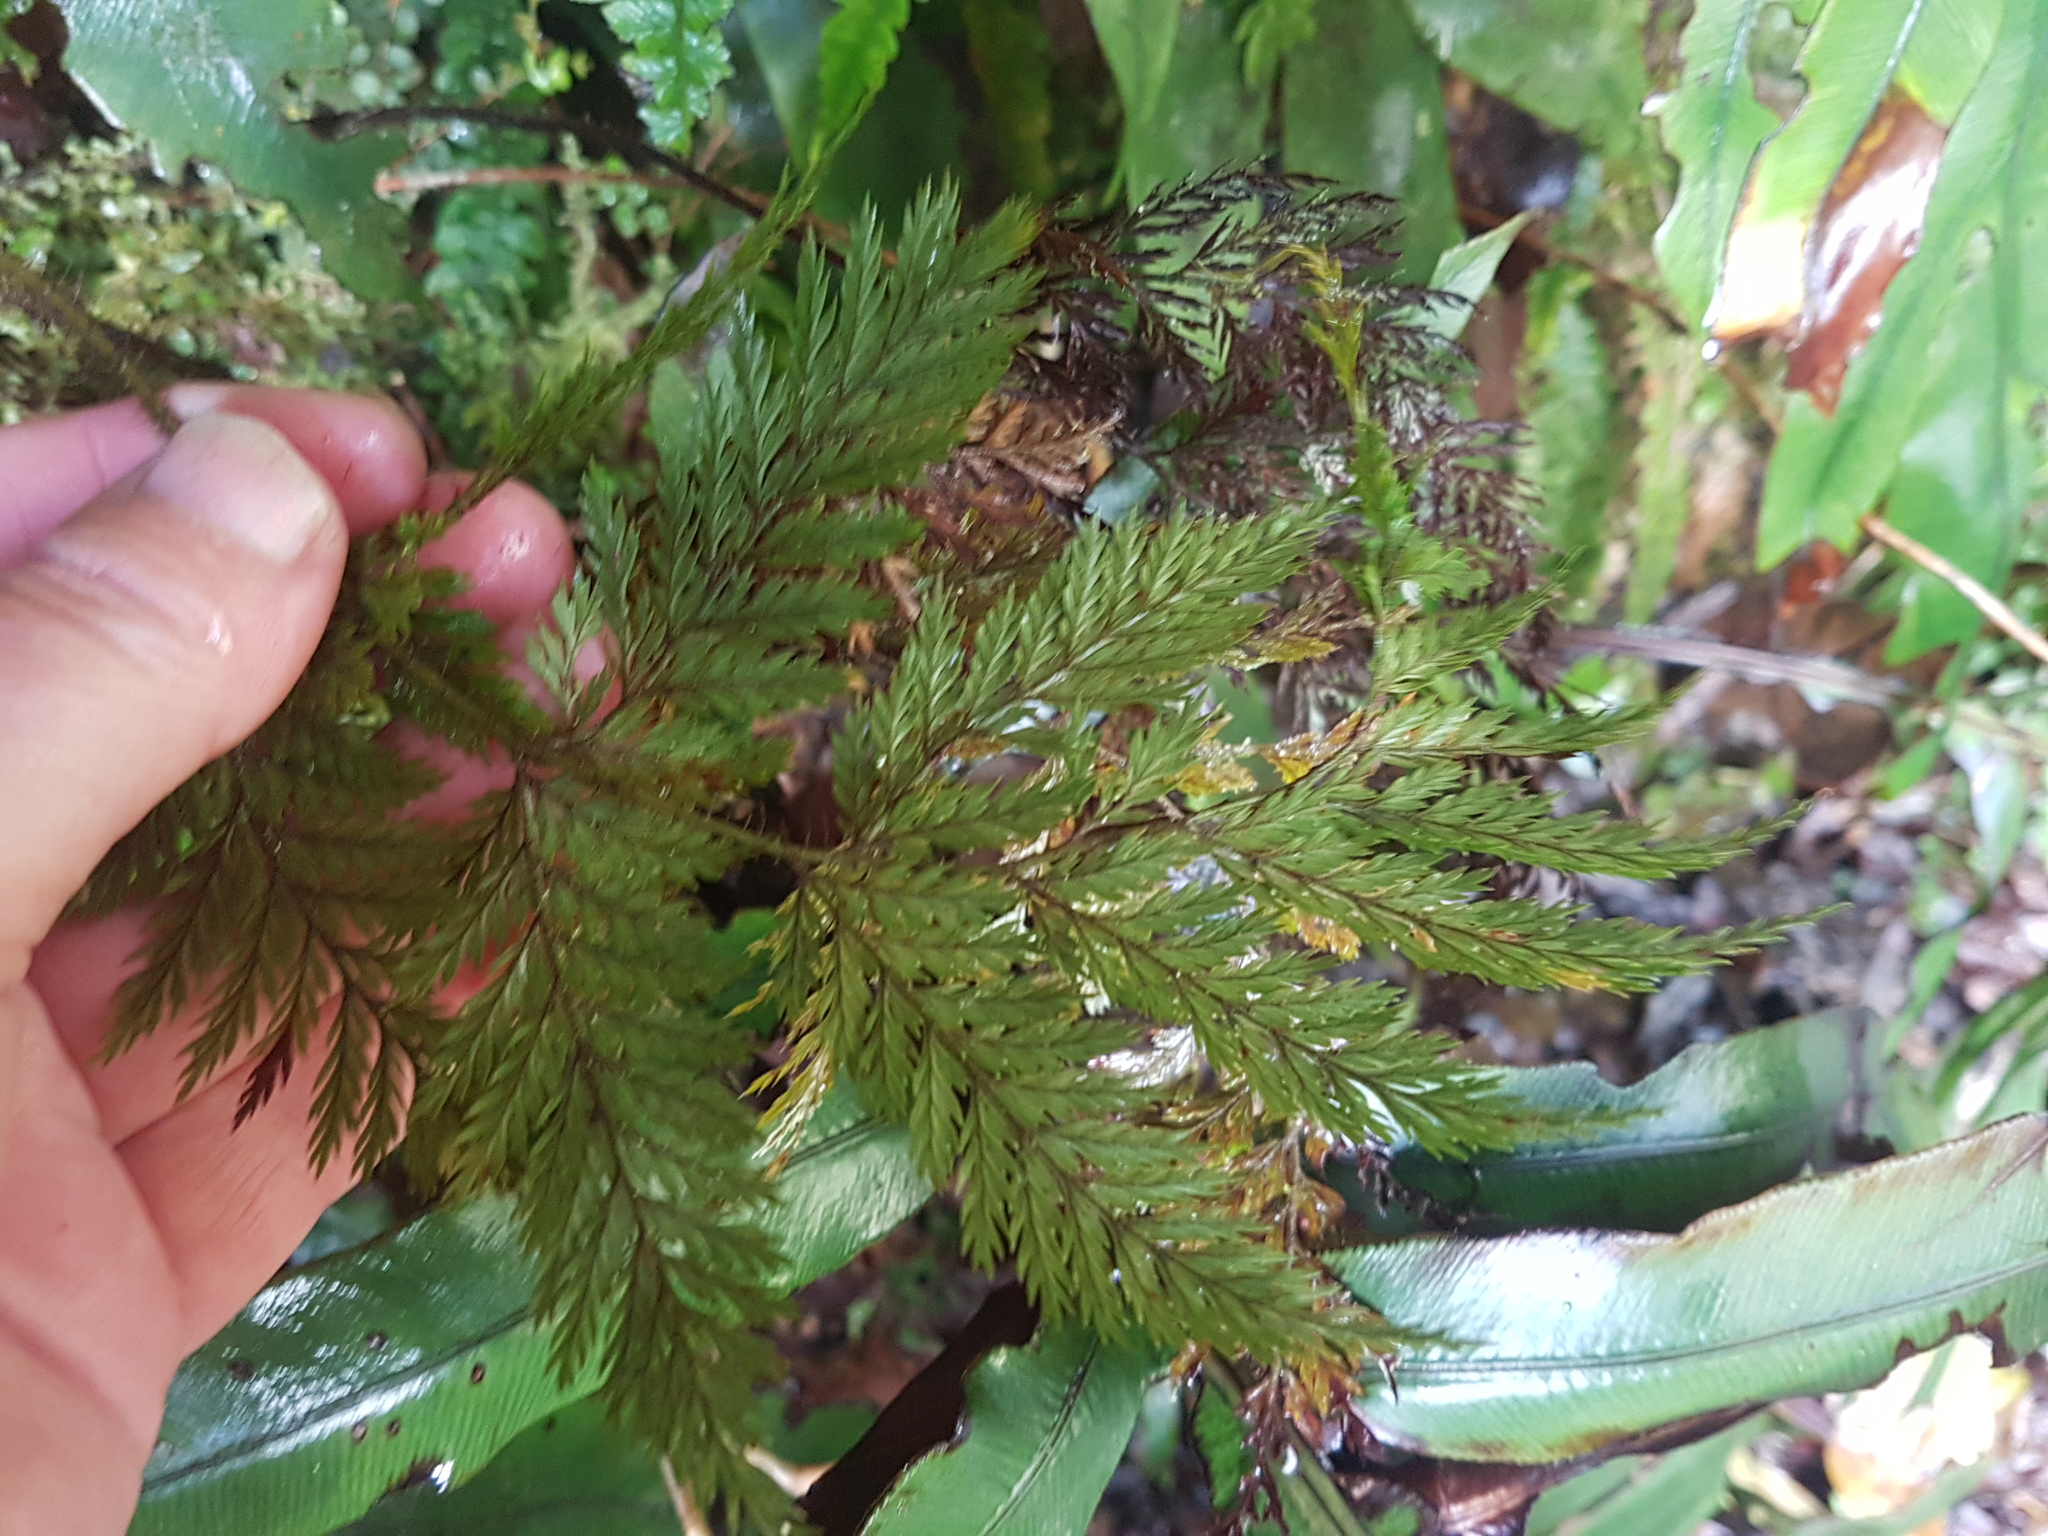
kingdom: Plantae
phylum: Tracheophyta
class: Polypodiopsida
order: Polypodiales
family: Dryopteridaceae
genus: Lastreopsis
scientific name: Lastreopsis hispida
